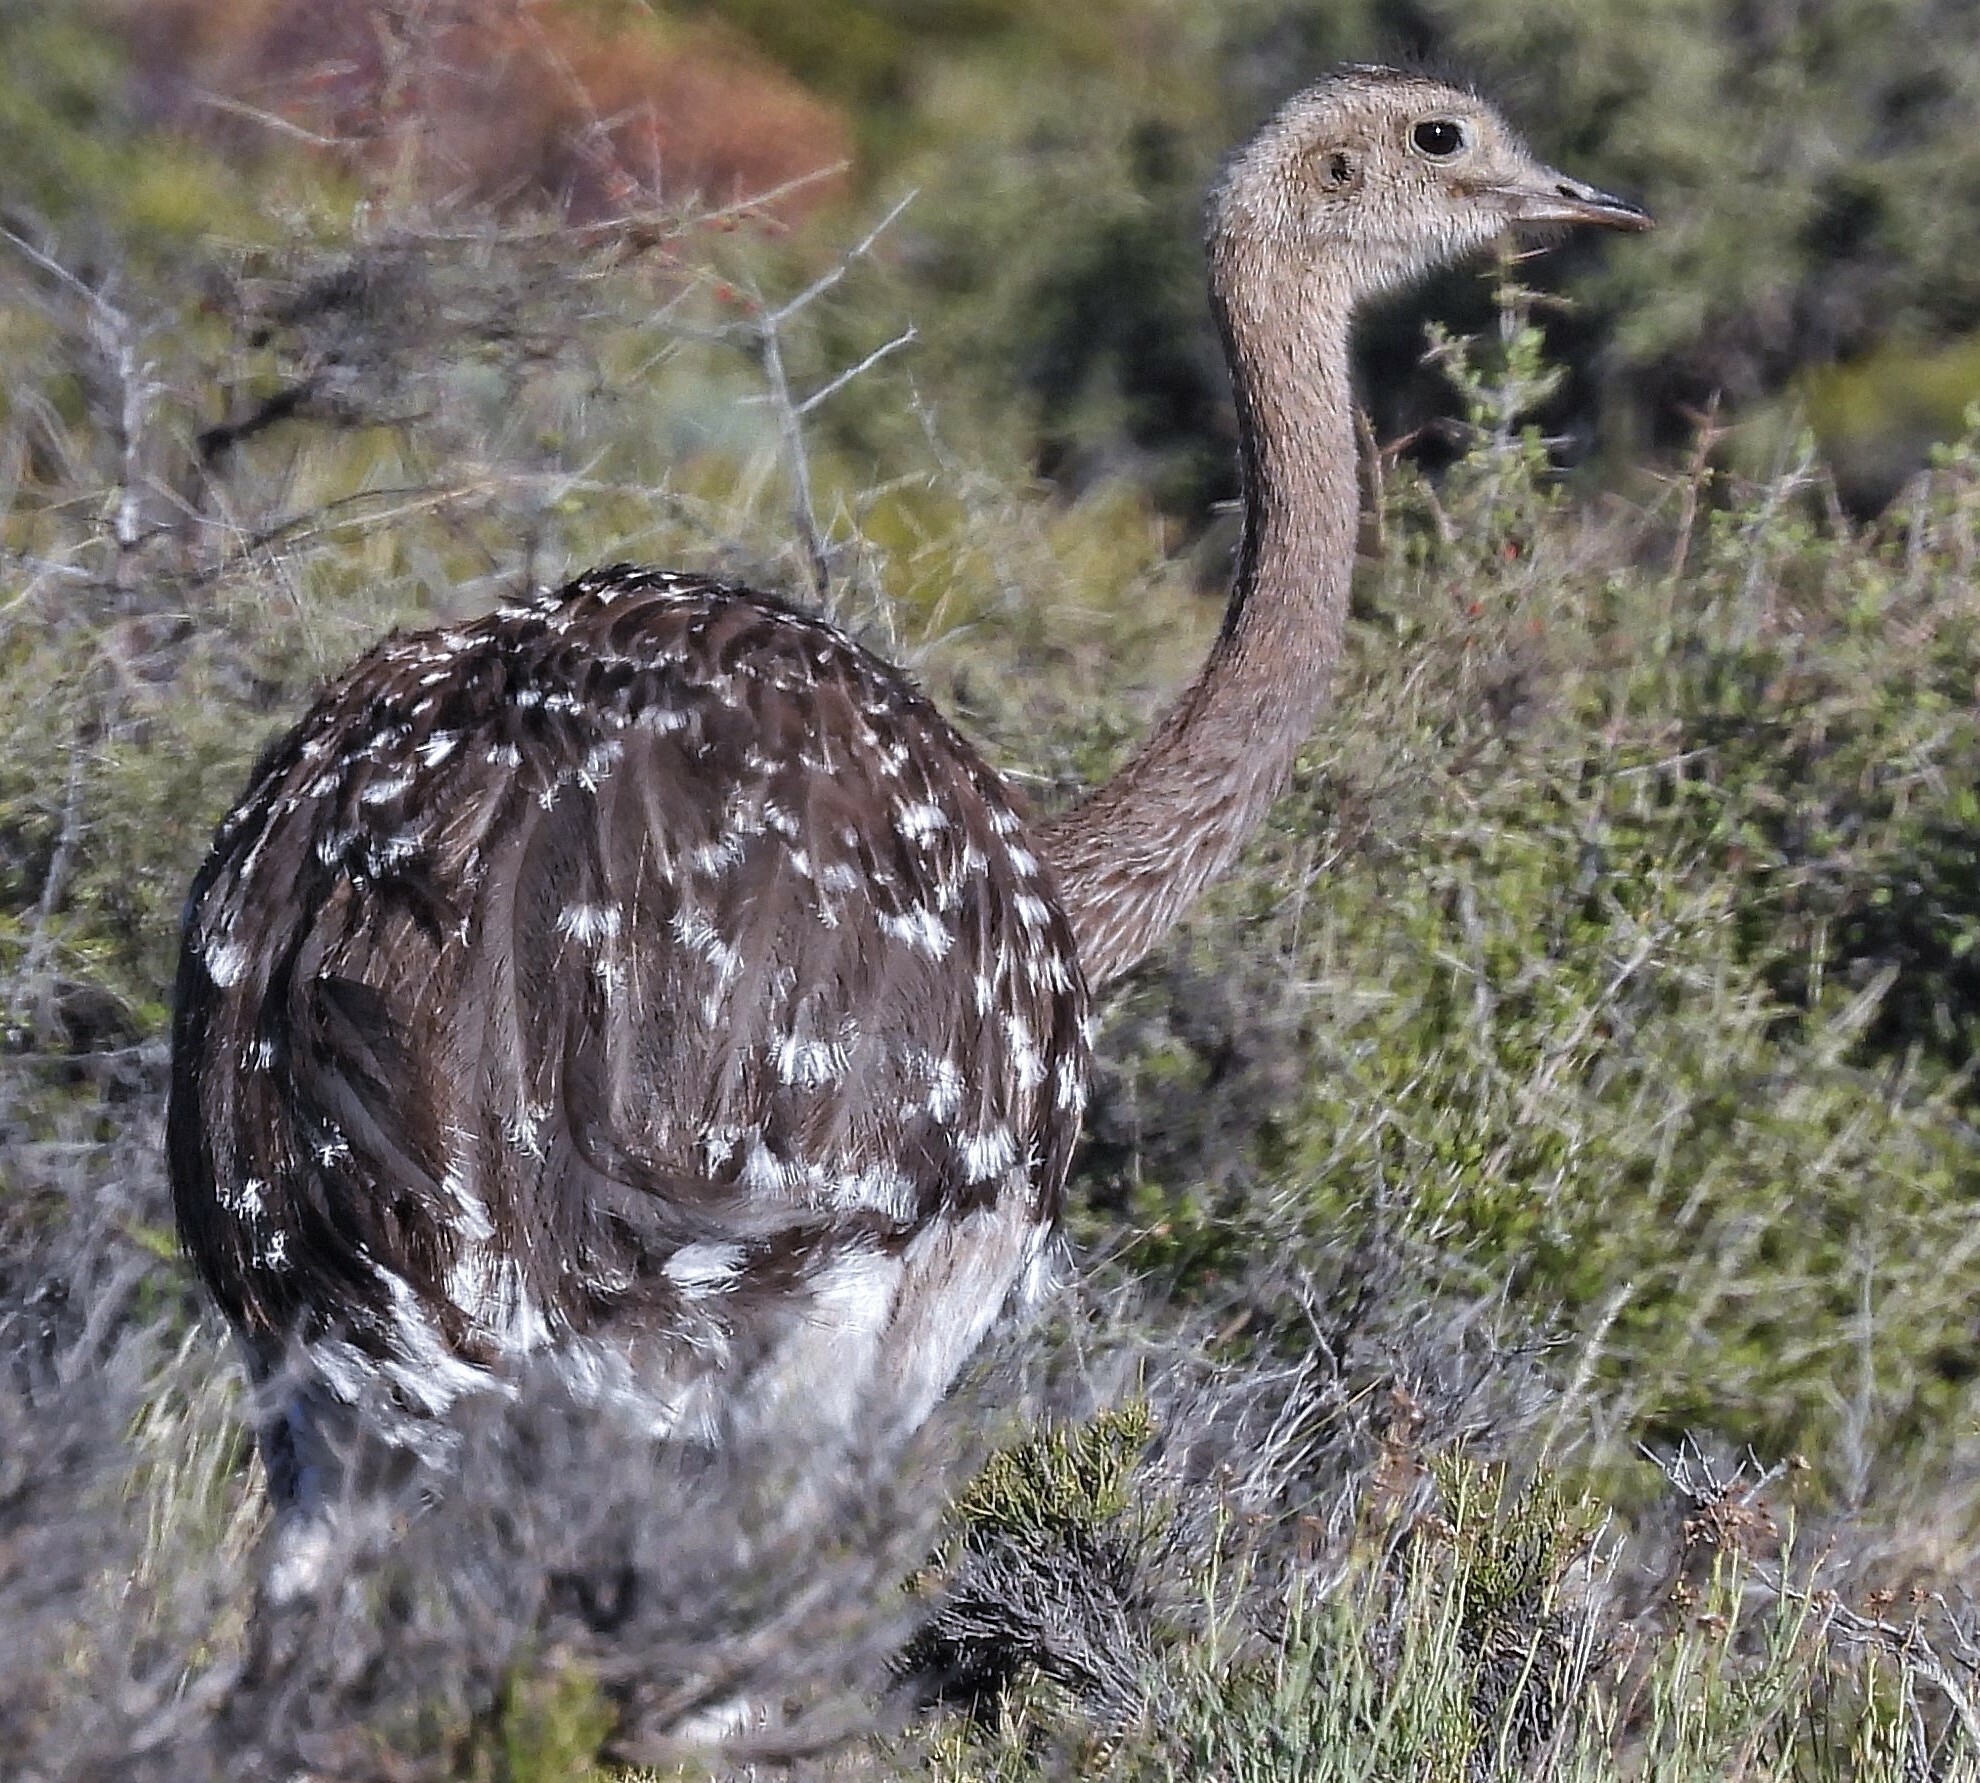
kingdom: Animalia
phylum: Chordata
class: Aves
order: Rheiformes
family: Rheidae
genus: Rhea
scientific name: Rhea pennata
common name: Lesser rhea
